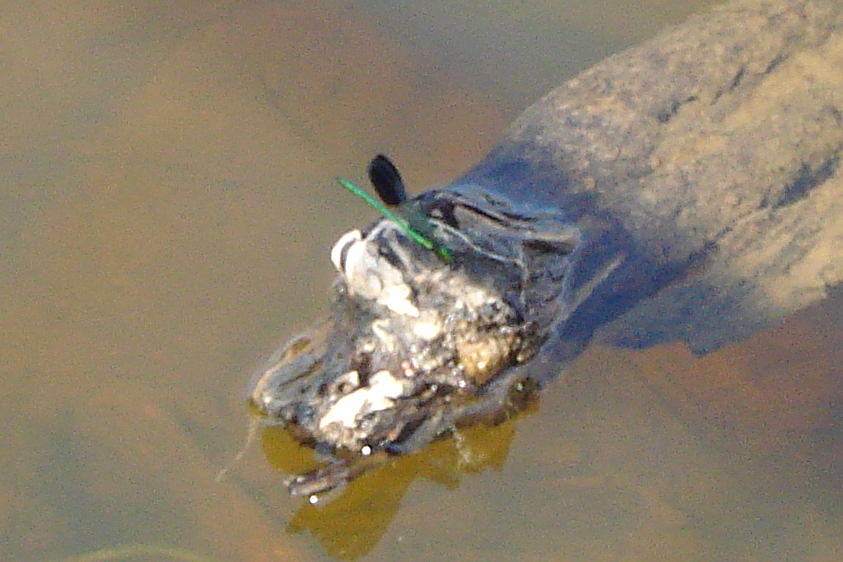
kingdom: Animalia
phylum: Arthropoda
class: Insecta
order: Odonata
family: Calopterygidae
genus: Calopteryx
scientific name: Calopteryx aequabilis
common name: River jewelwing
